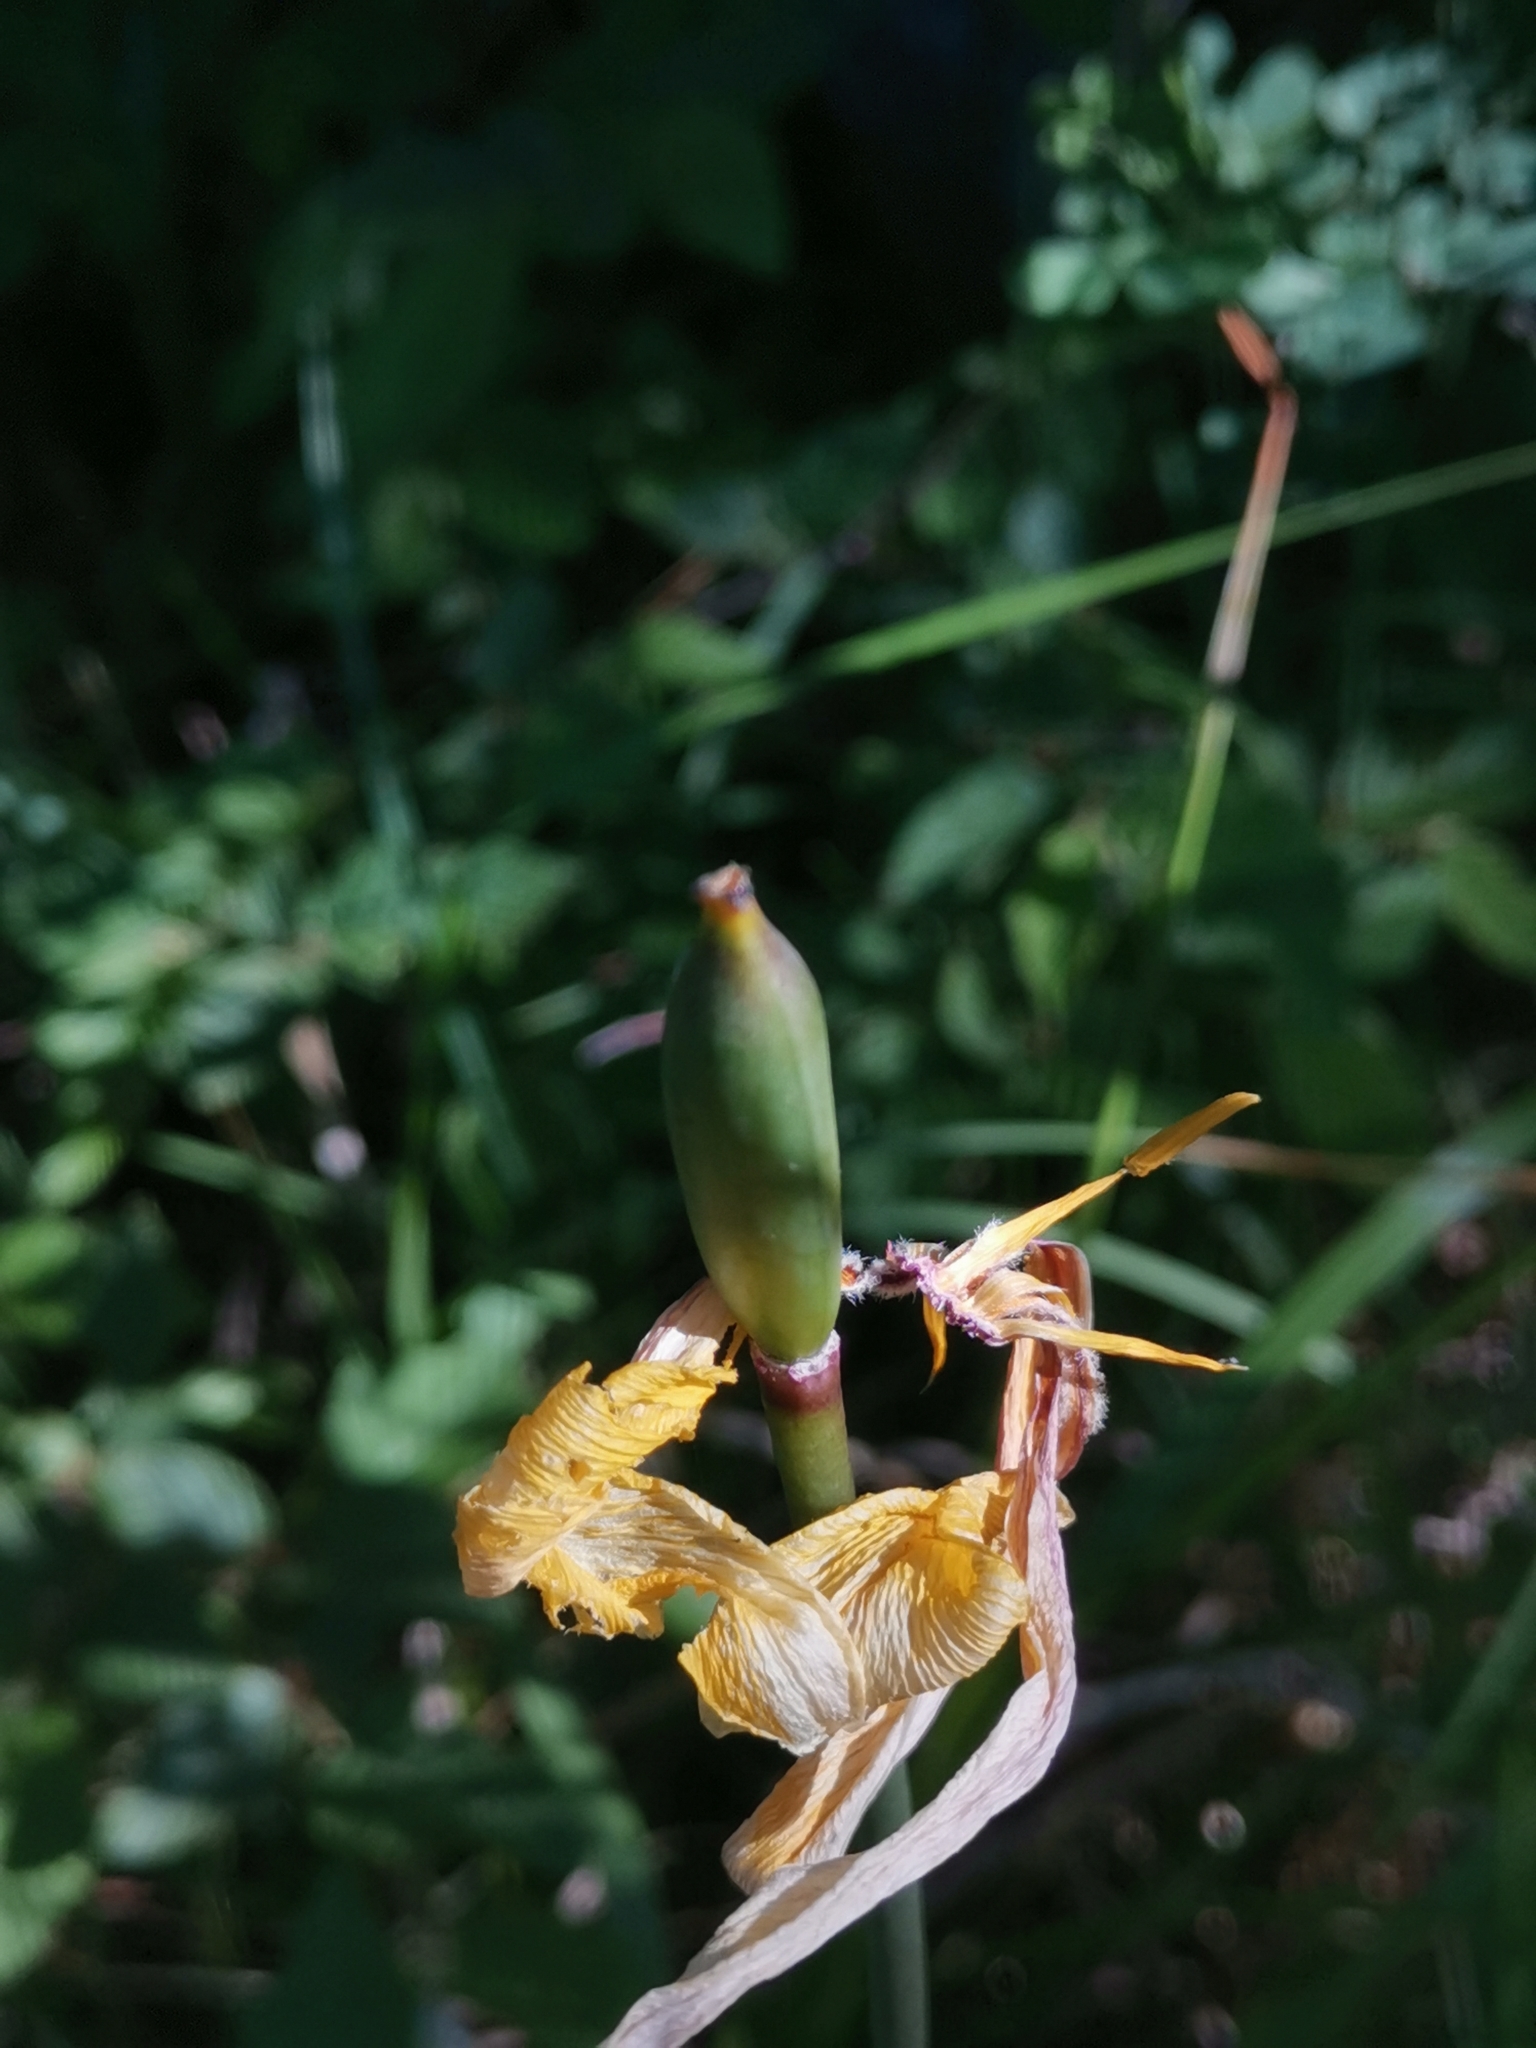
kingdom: Plantae
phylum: Tracheophyta
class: Liliopsida
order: Liliales
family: Liliaceae
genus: Tulipa
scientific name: Tulipa sylvestris
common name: Wild tulip
